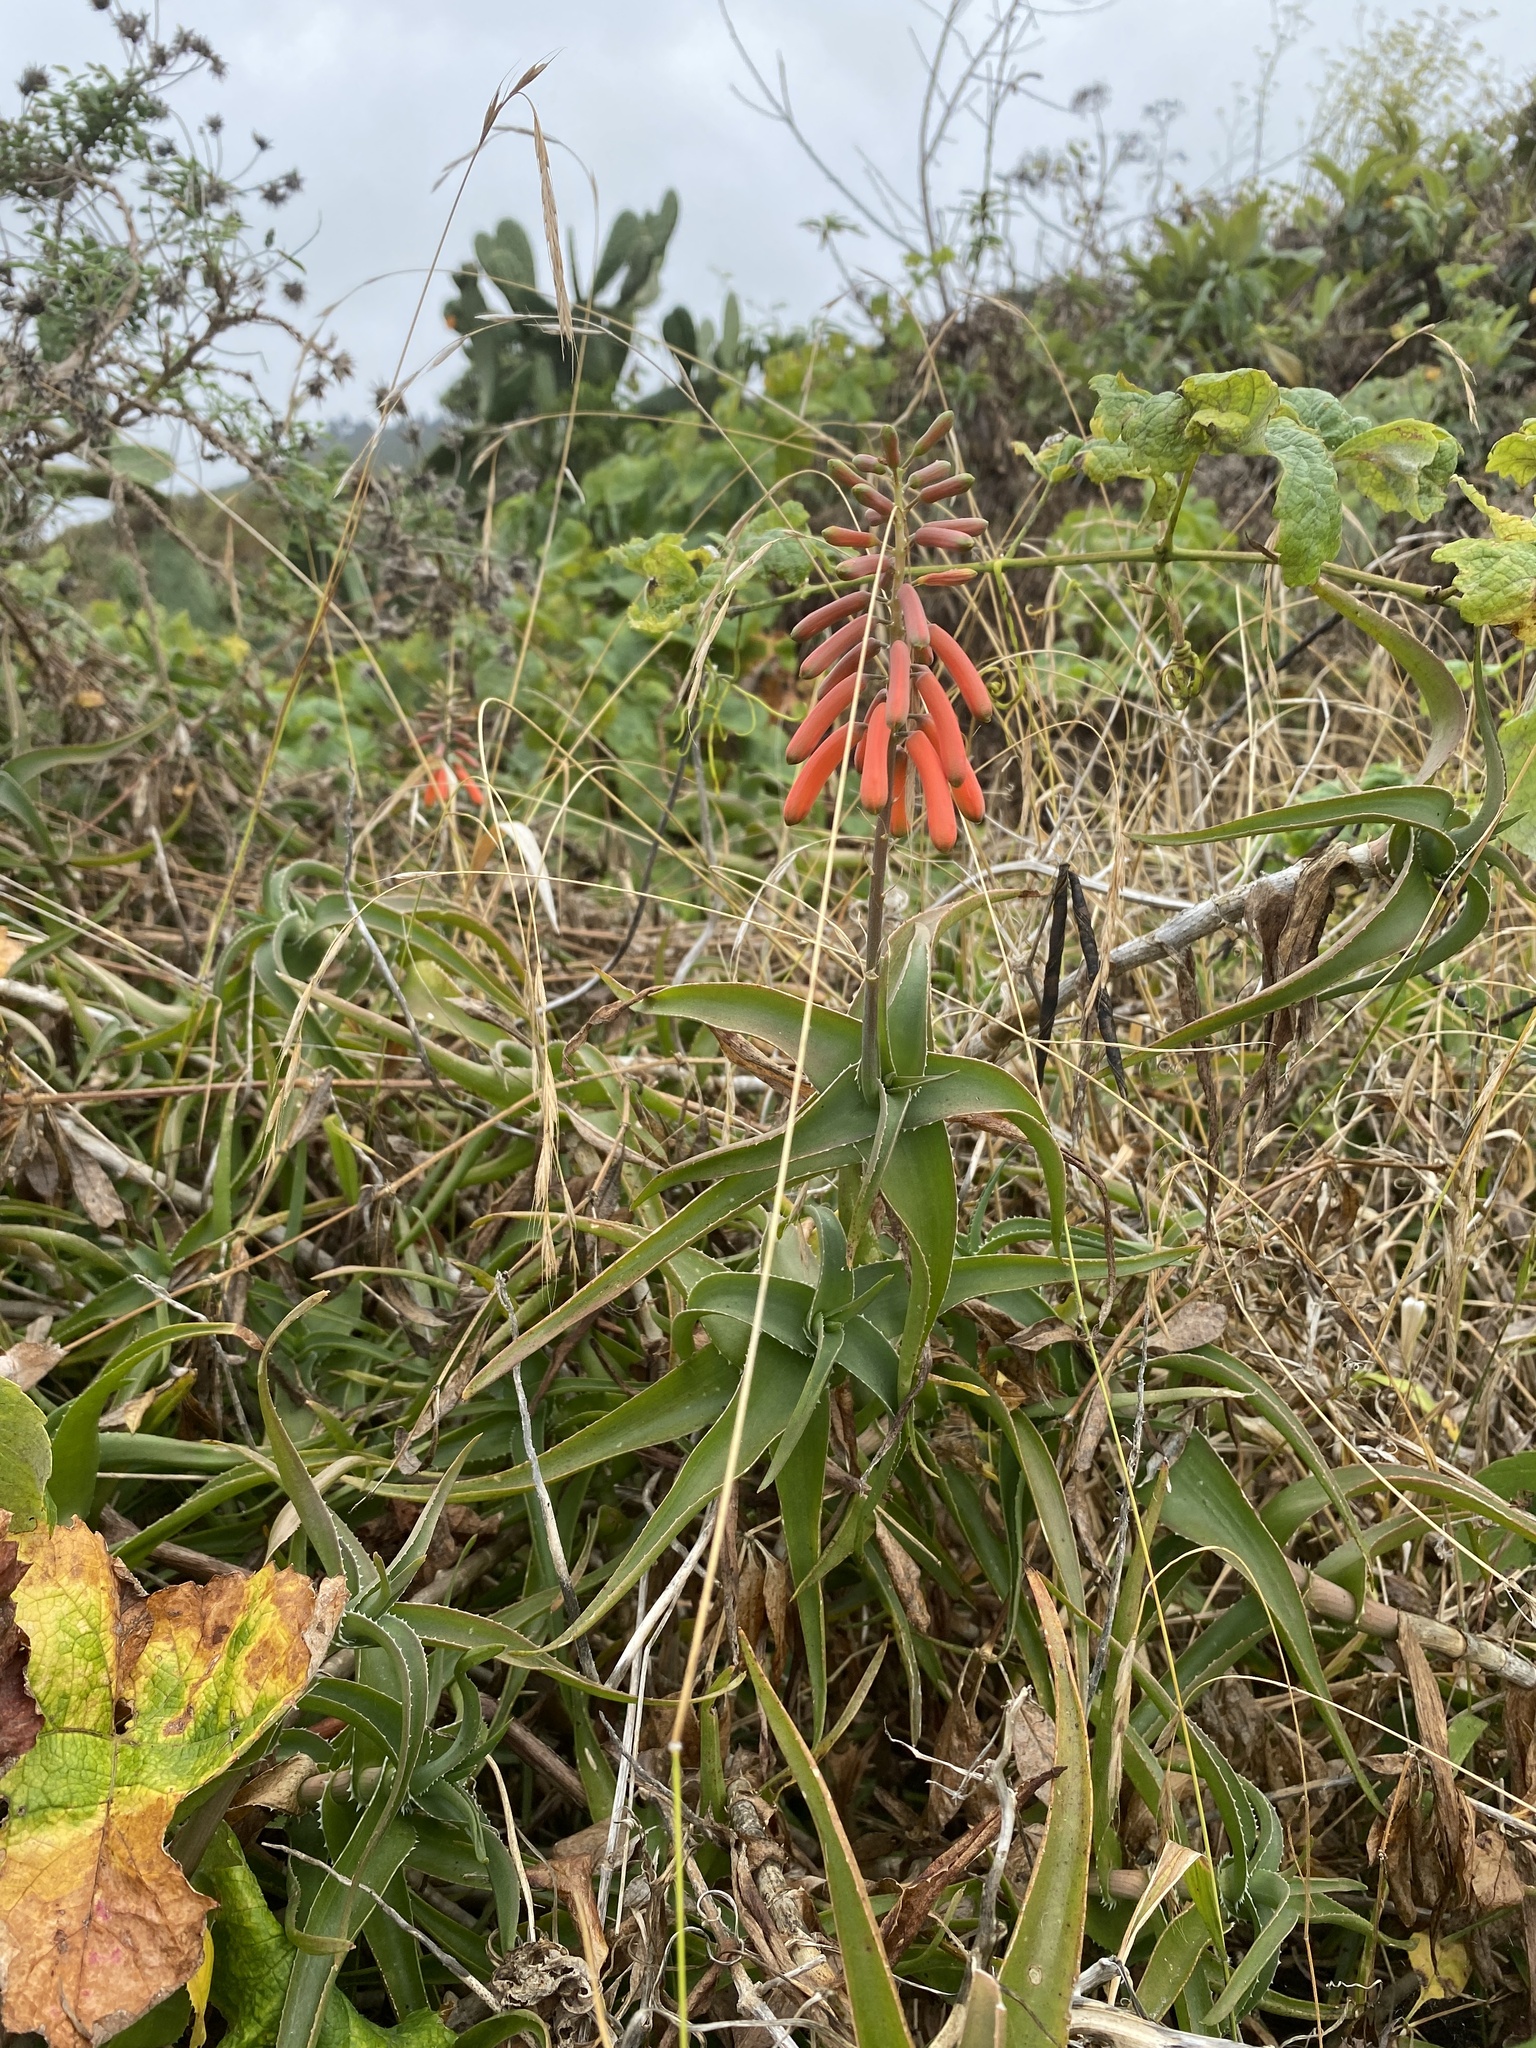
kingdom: Plantae
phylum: Tracheophyta
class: Liliopsida
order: Asparagales
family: Asphodelaceae
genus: Aloiampelos
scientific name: Aloiampelos ciliaris
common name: Climbing aloe
